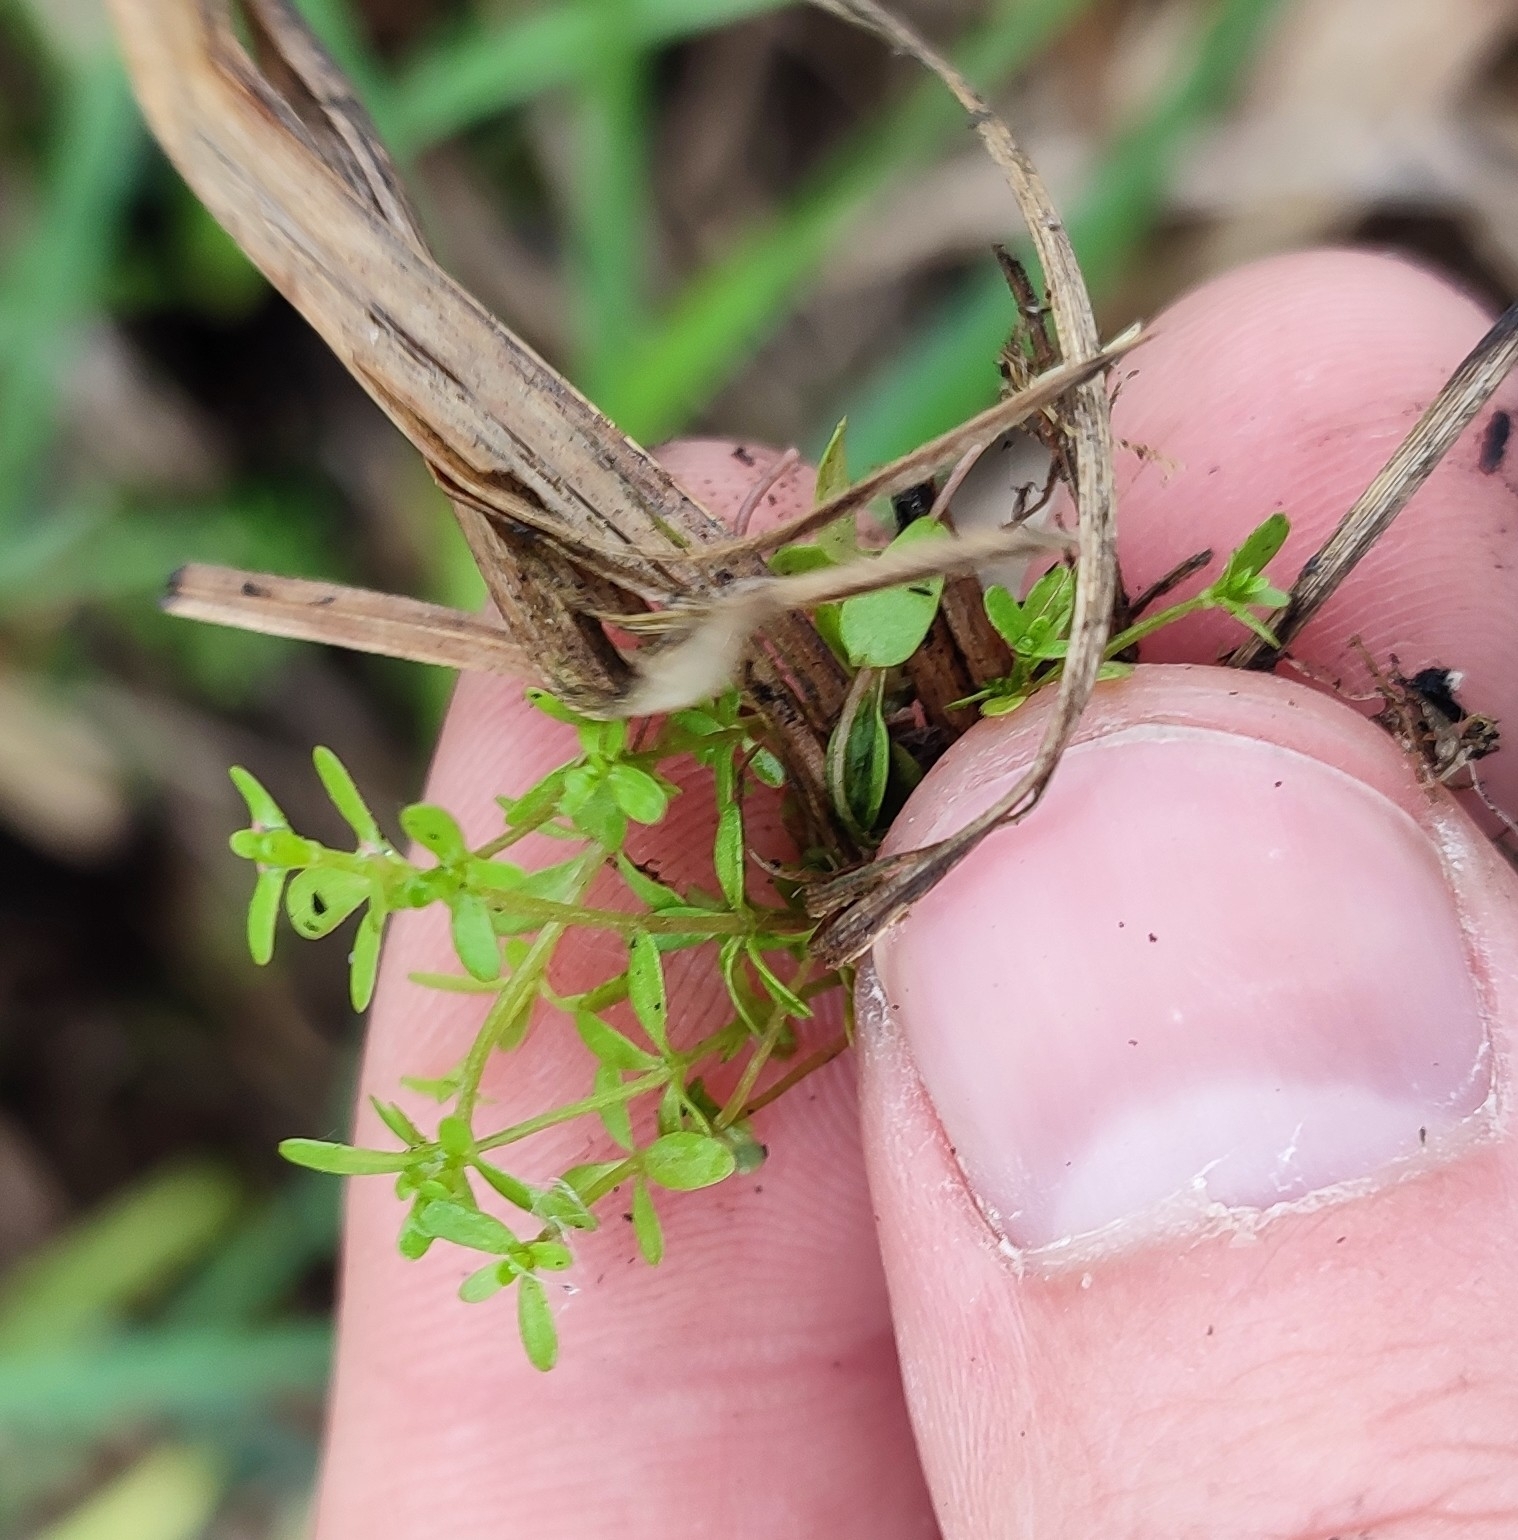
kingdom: Plantae
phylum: Tracheophyta
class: Magnoliopsida
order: Gentianales
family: Rubiaceae
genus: Galium
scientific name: Galium palustre
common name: Common marsh-bedstraw
